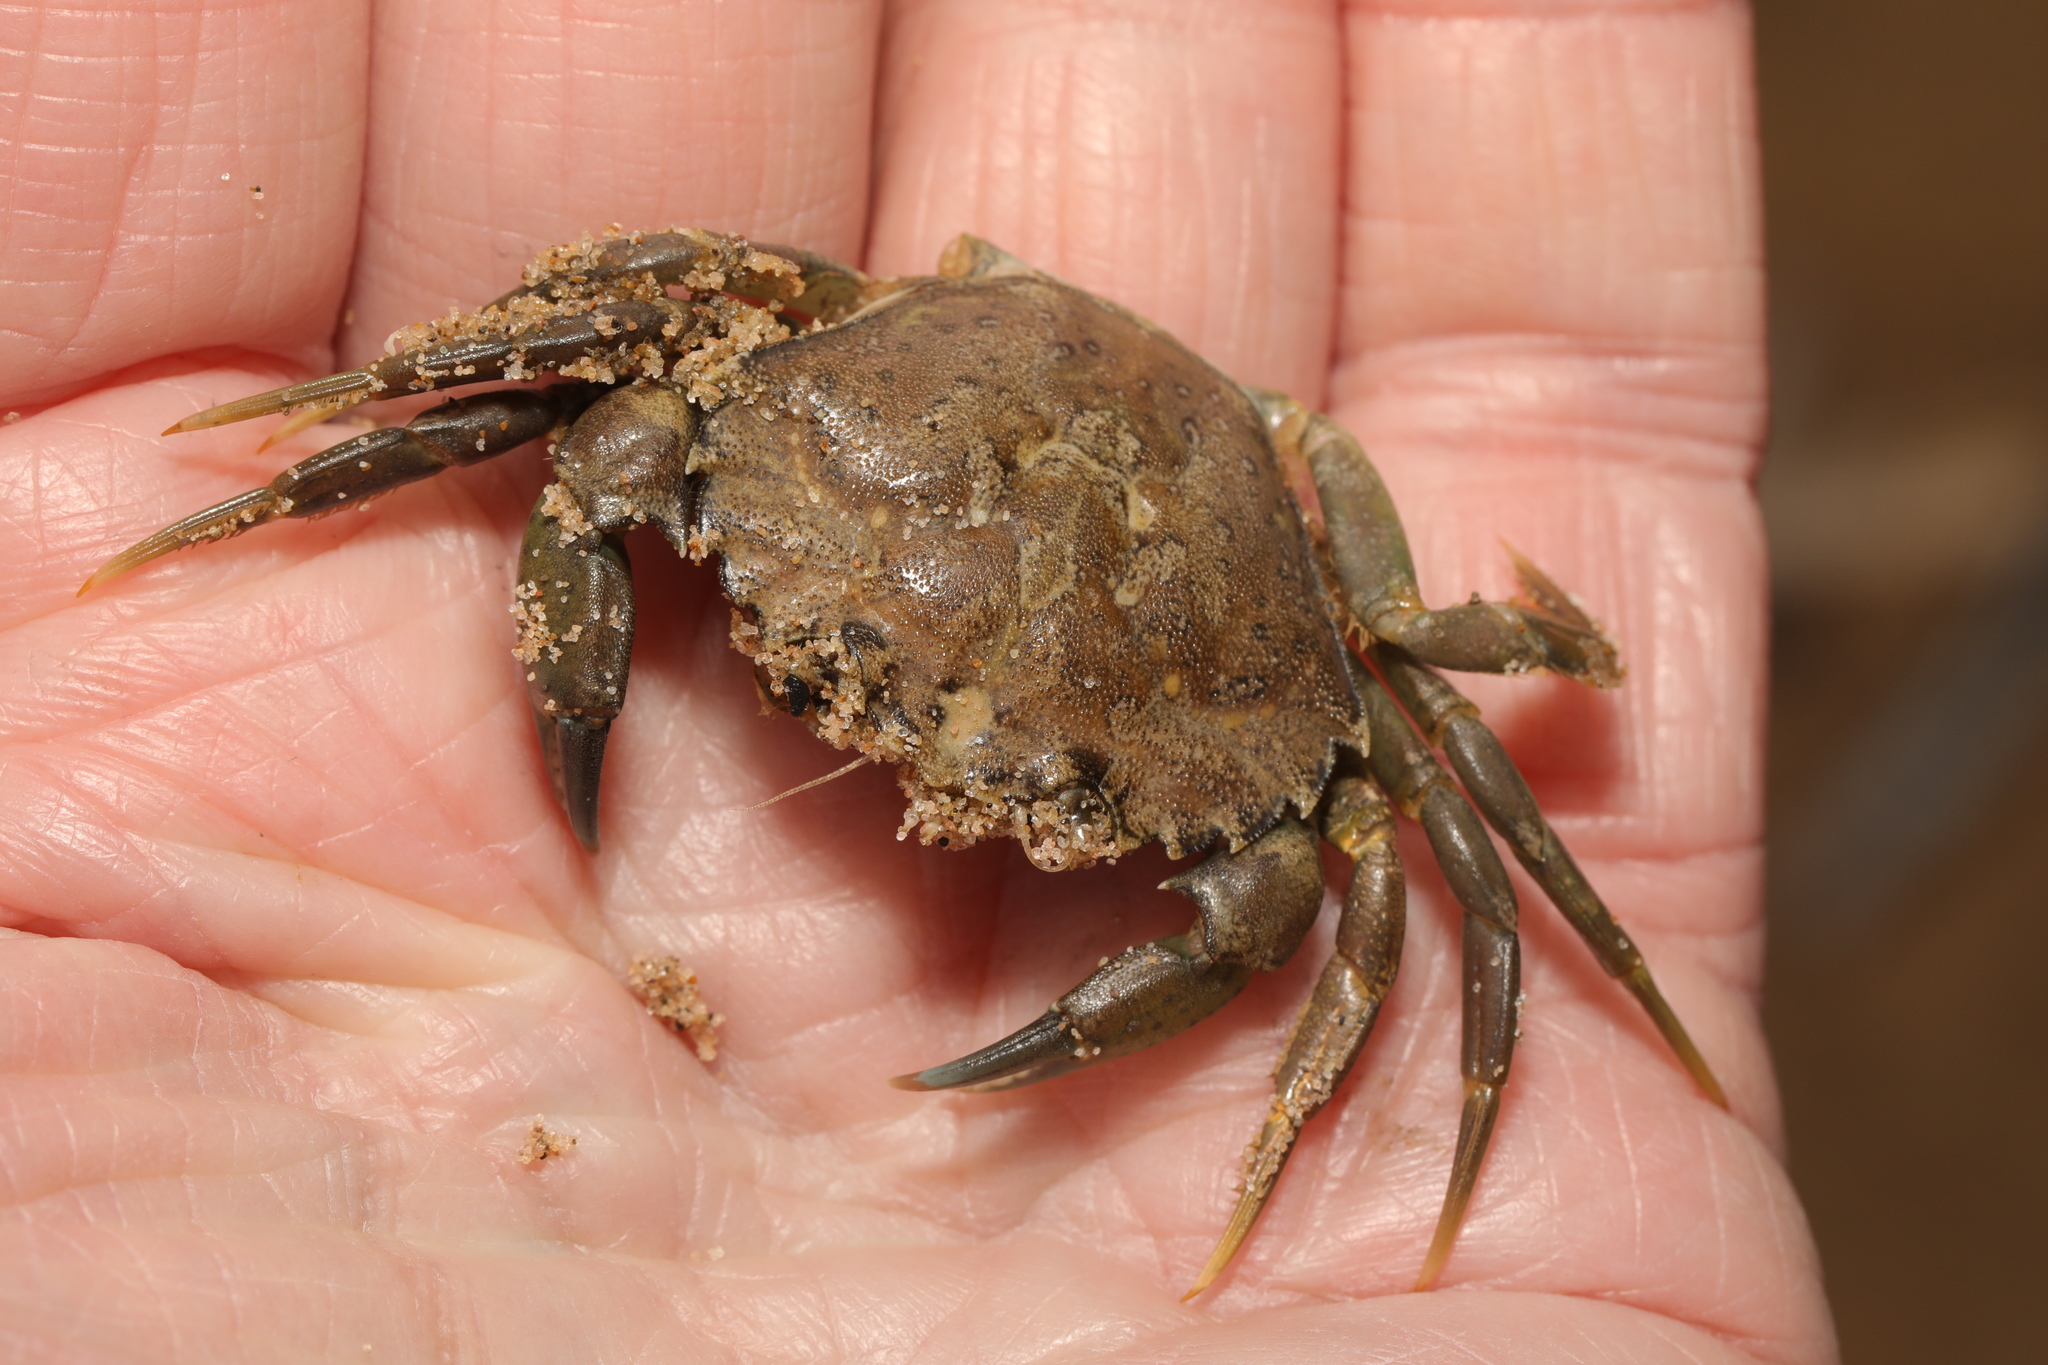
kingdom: Animalia
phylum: Arthropoda
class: Malacostraca
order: Decapoda
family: Carcinidae
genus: Carcinus
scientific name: Carcinus maenas
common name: European green crab
